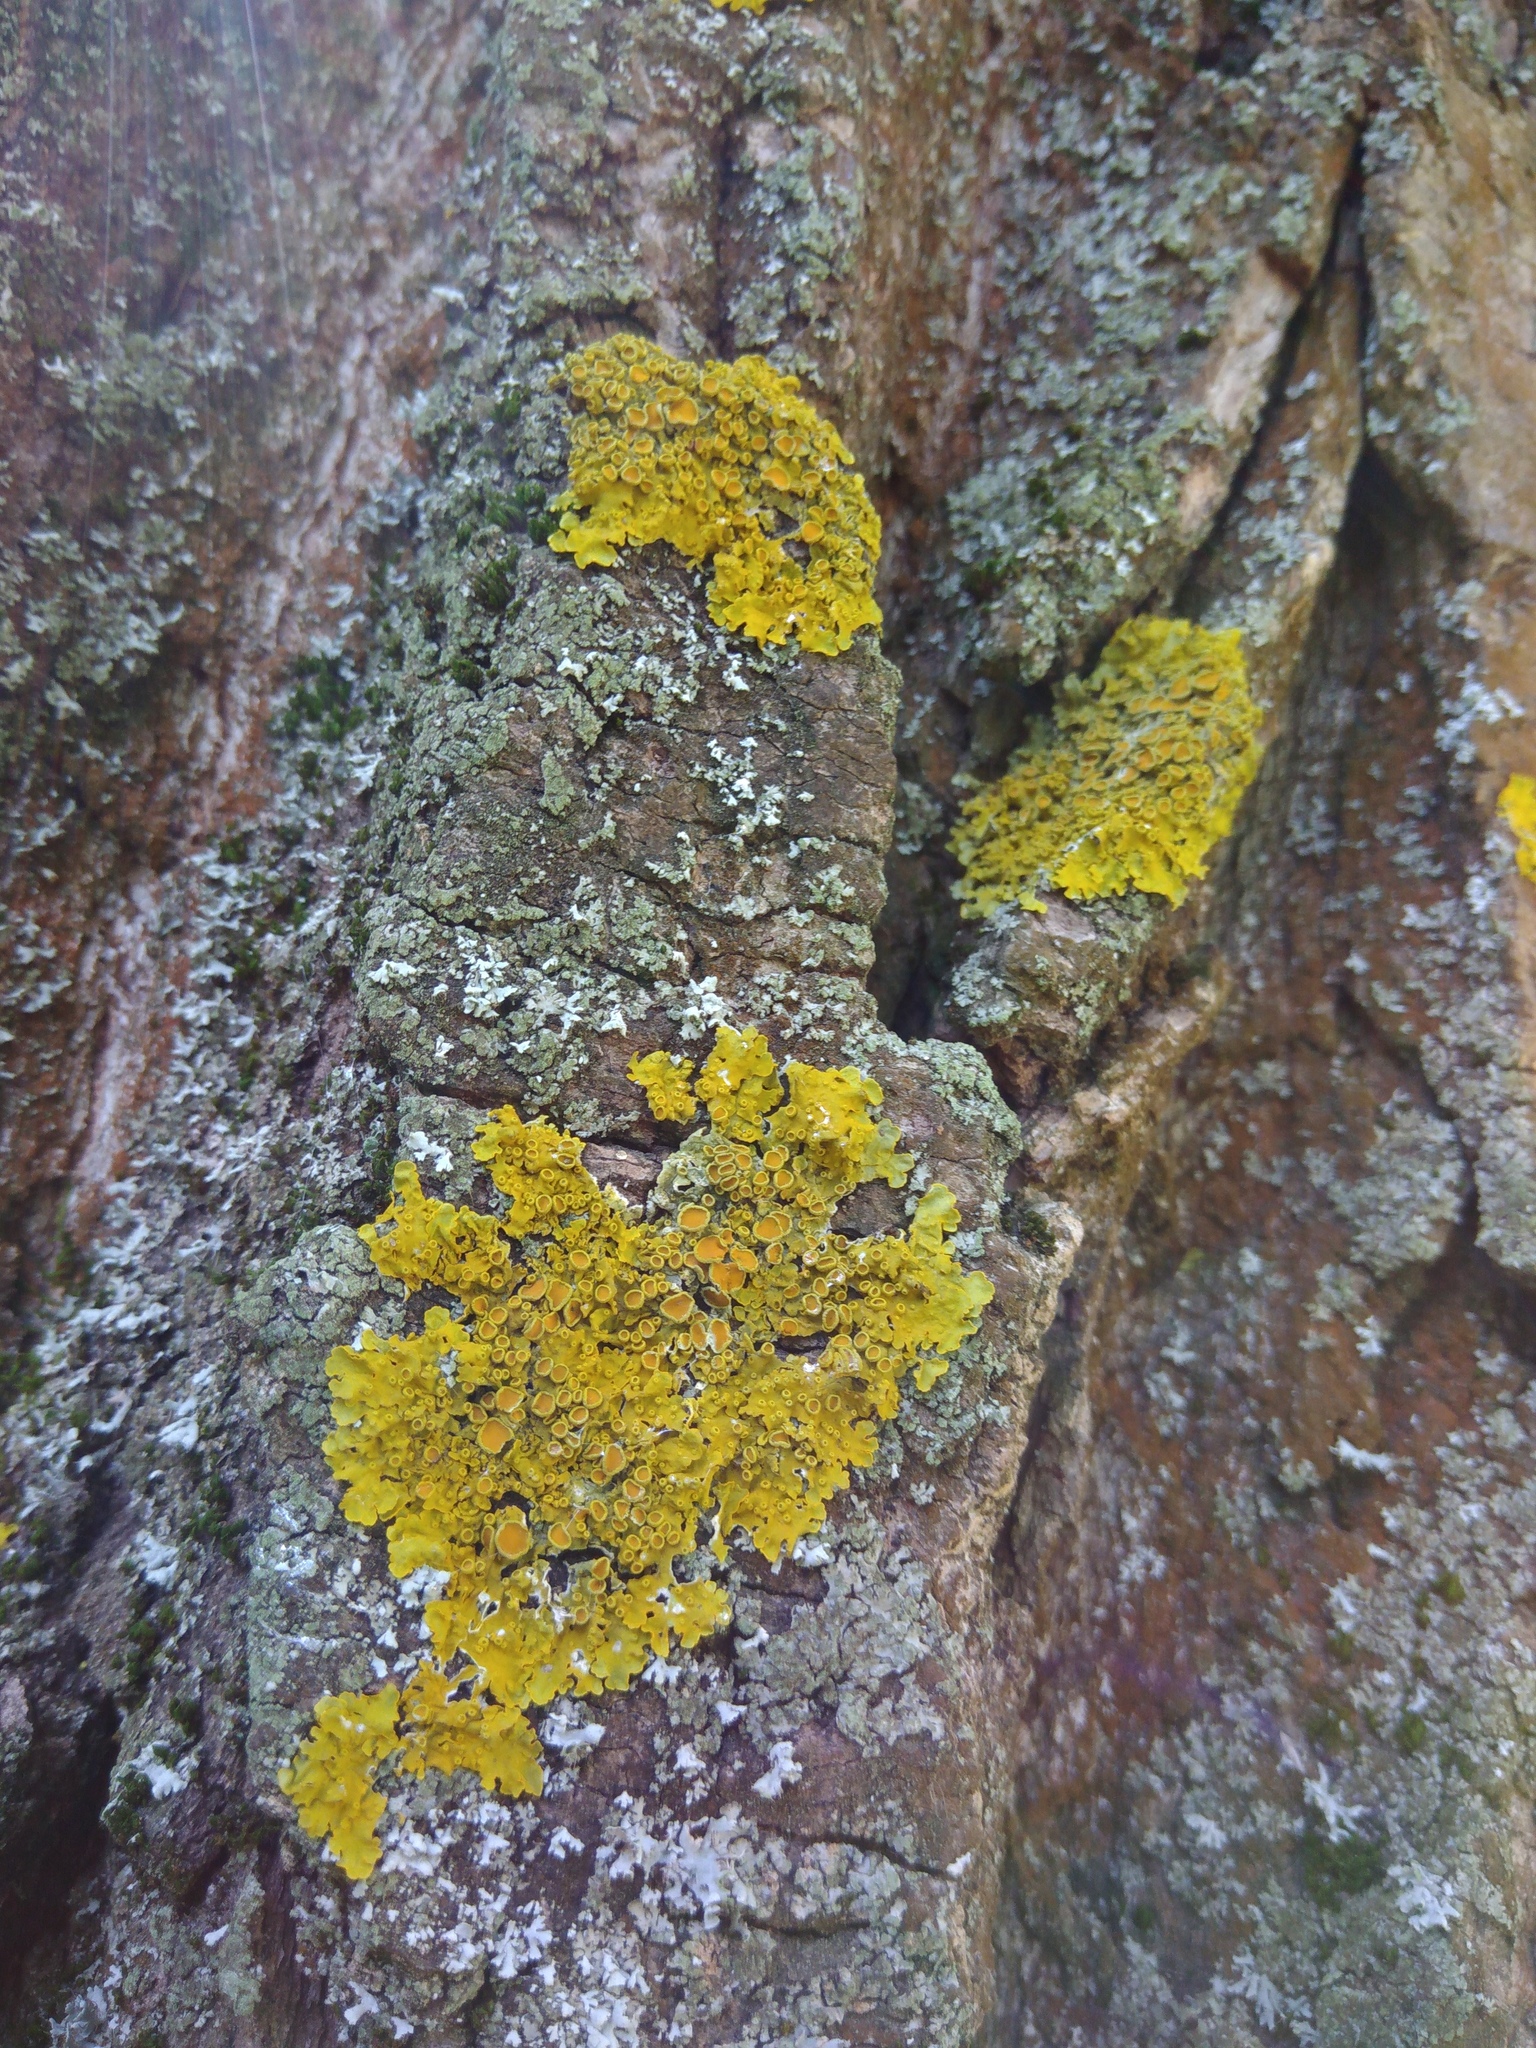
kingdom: Fungi
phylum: Ascomycota
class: Lecanoromycetes
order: Teloschistales
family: Teloschistaceae
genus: Xanthoria
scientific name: Xanthoria parietina
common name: Common orange lichen
